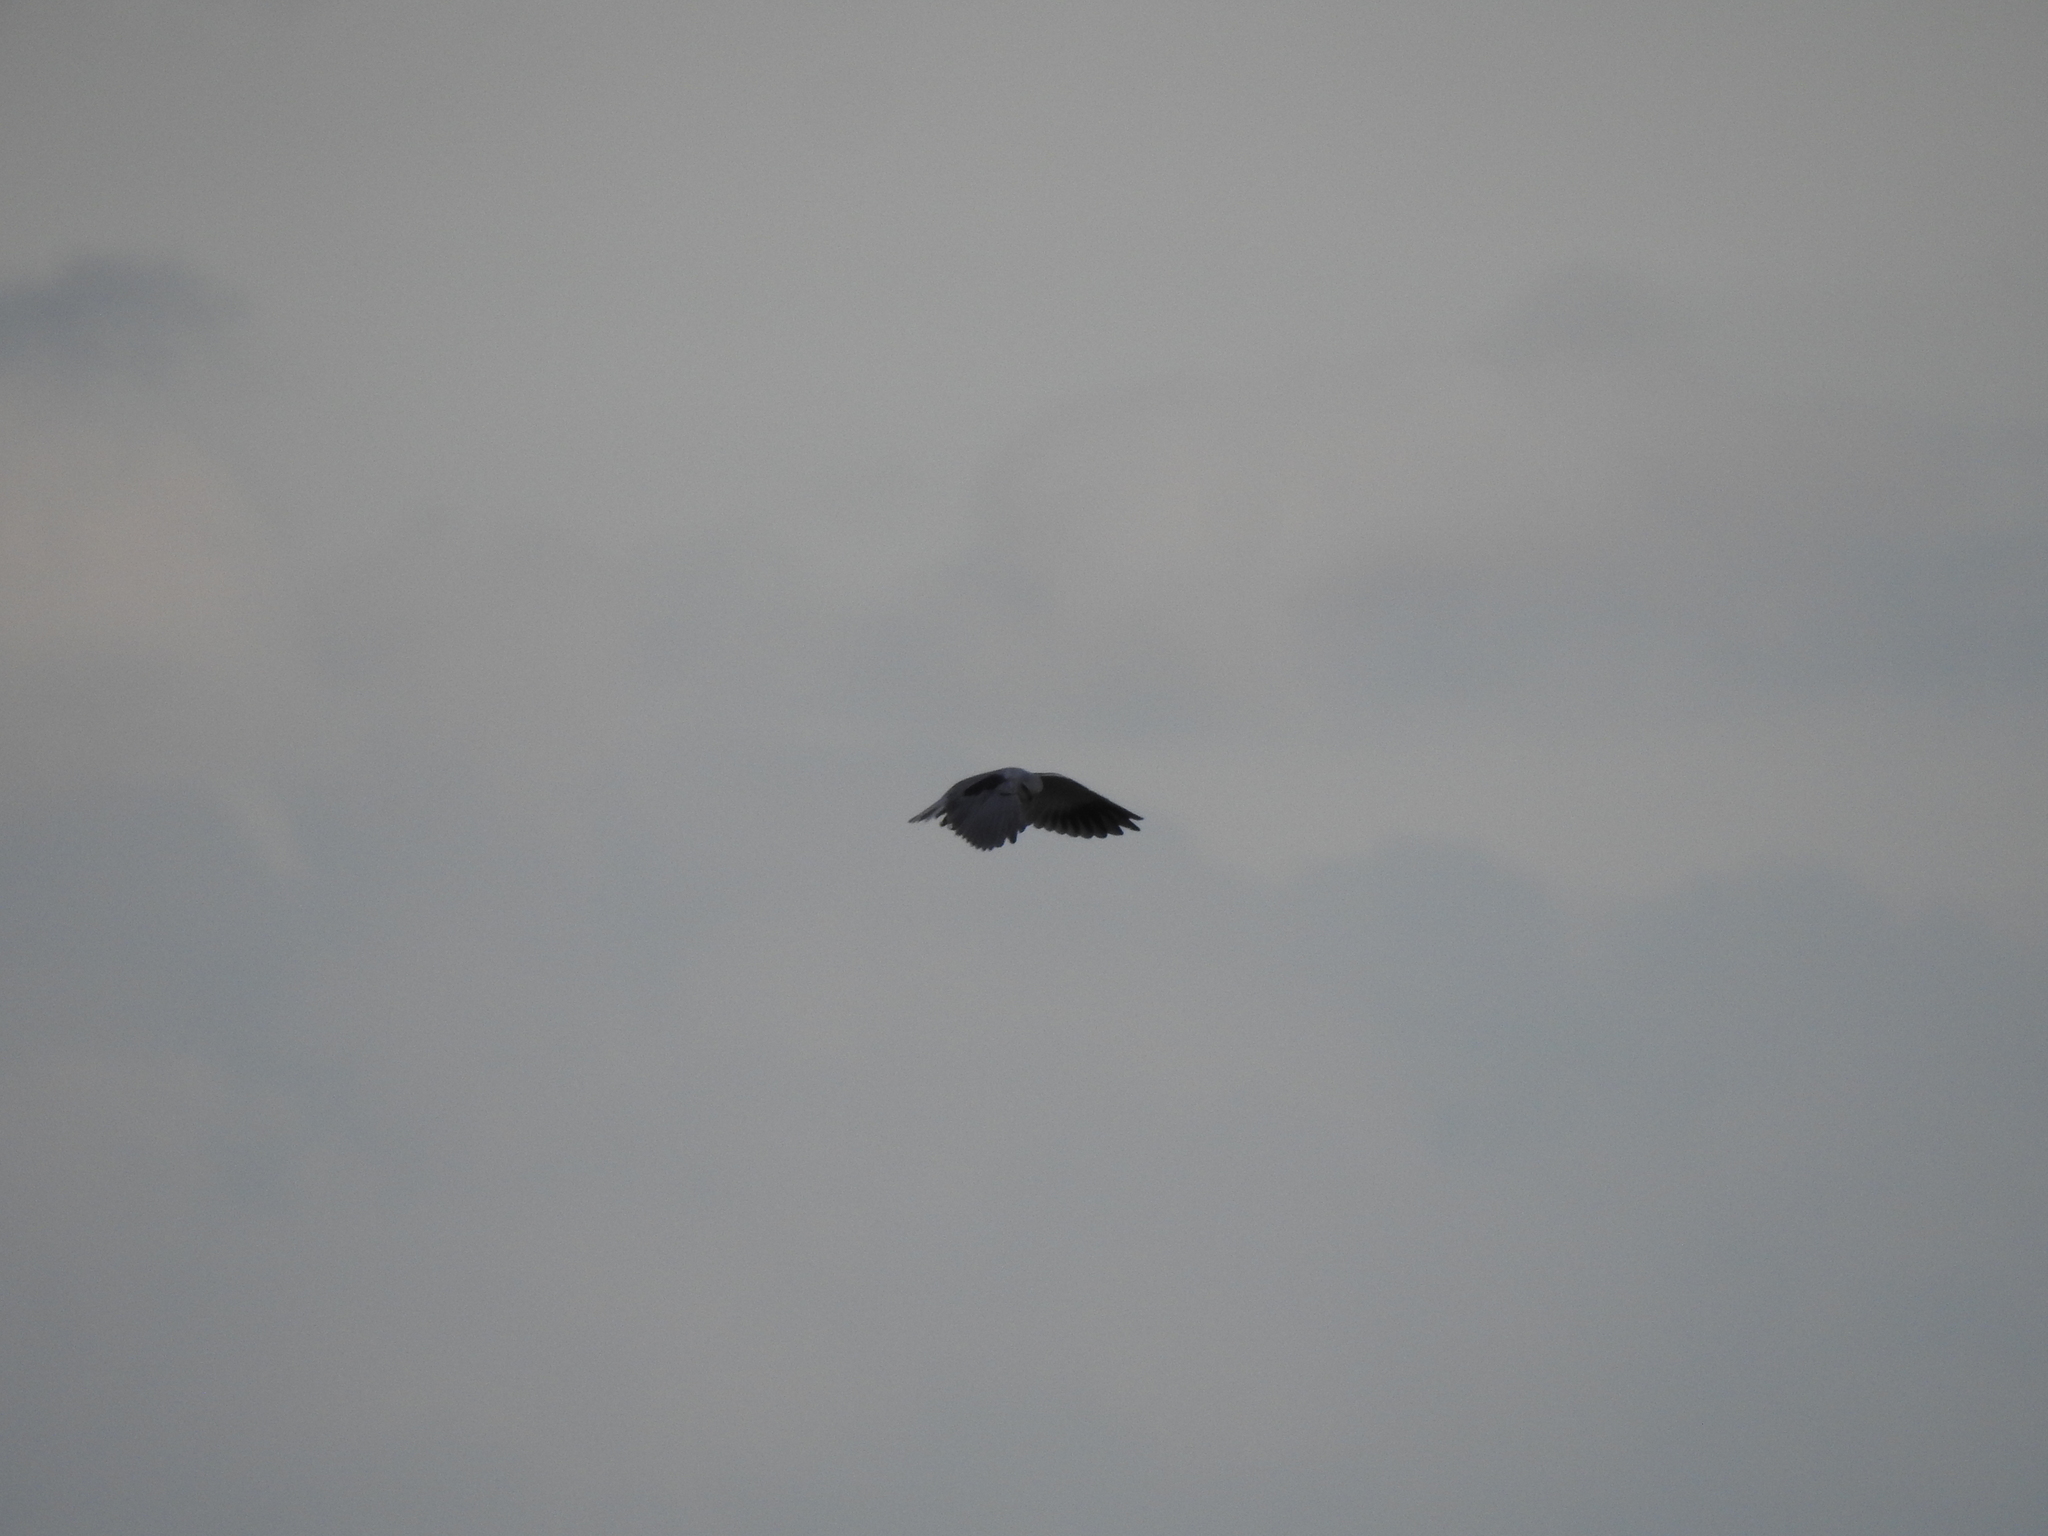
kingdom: Animalia
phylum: Chordata
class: Aves
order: Accipitriformes
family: Accipitridae
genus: Elanus
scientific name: Elanus caeruleus
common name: Black-winged kite
